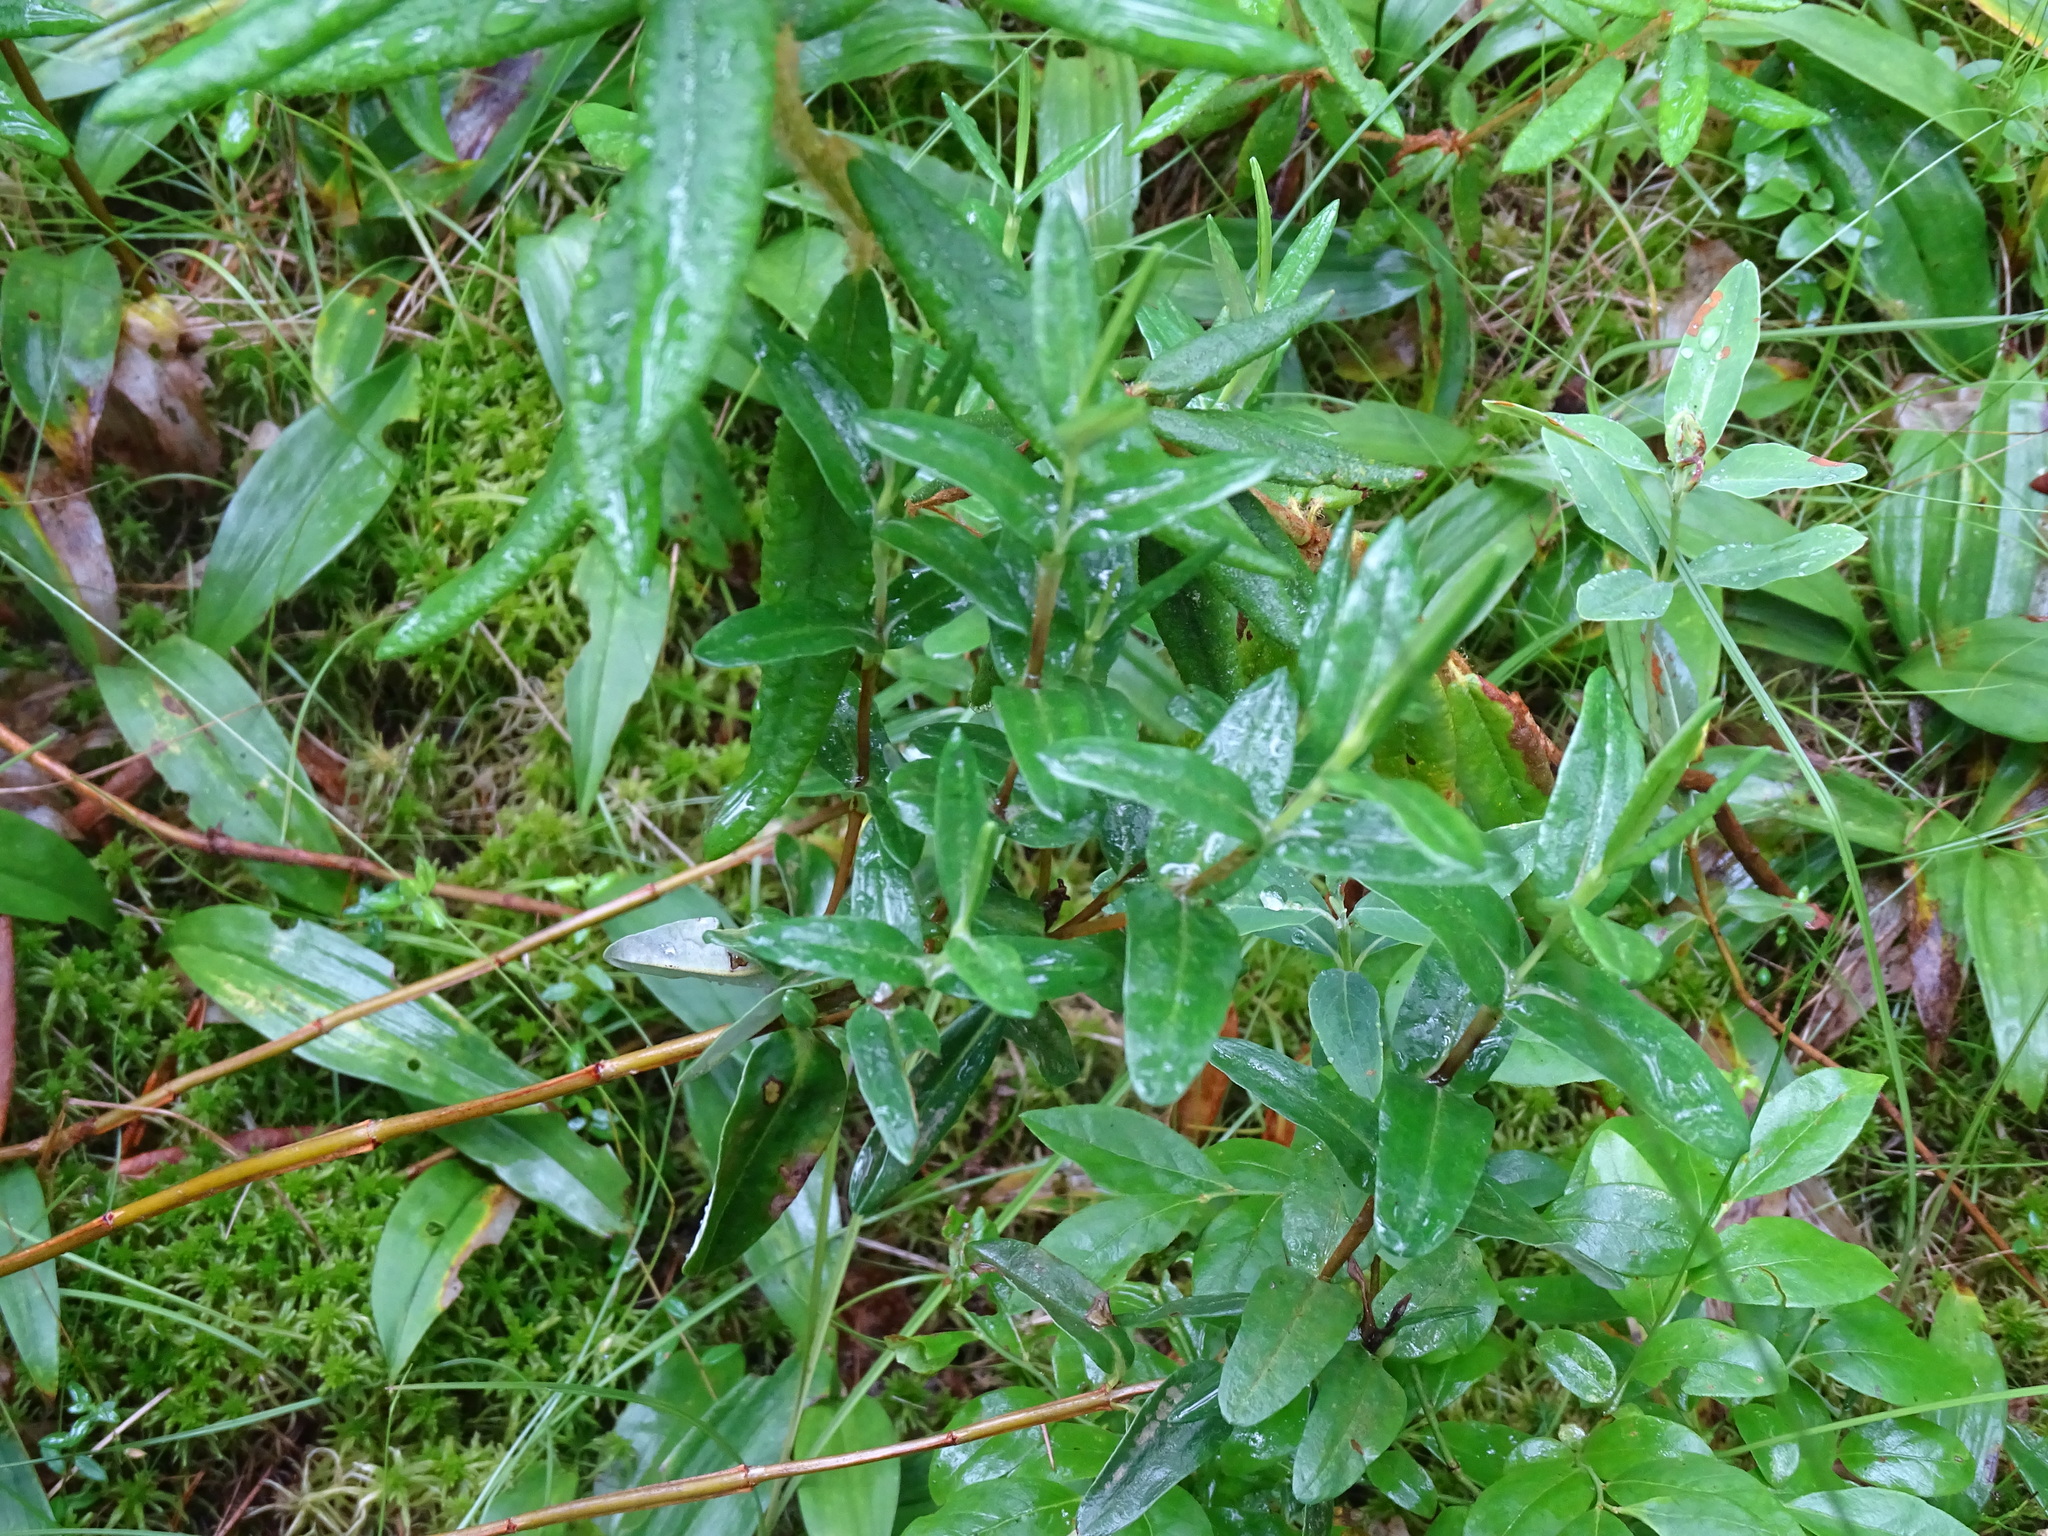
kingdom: Plantae
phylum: Tracheophyta
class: Magnoliopsida
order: Ericales
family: Ericaceae
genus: Kalmia
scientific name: Kalmia polifolia
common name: Bog-laurel
